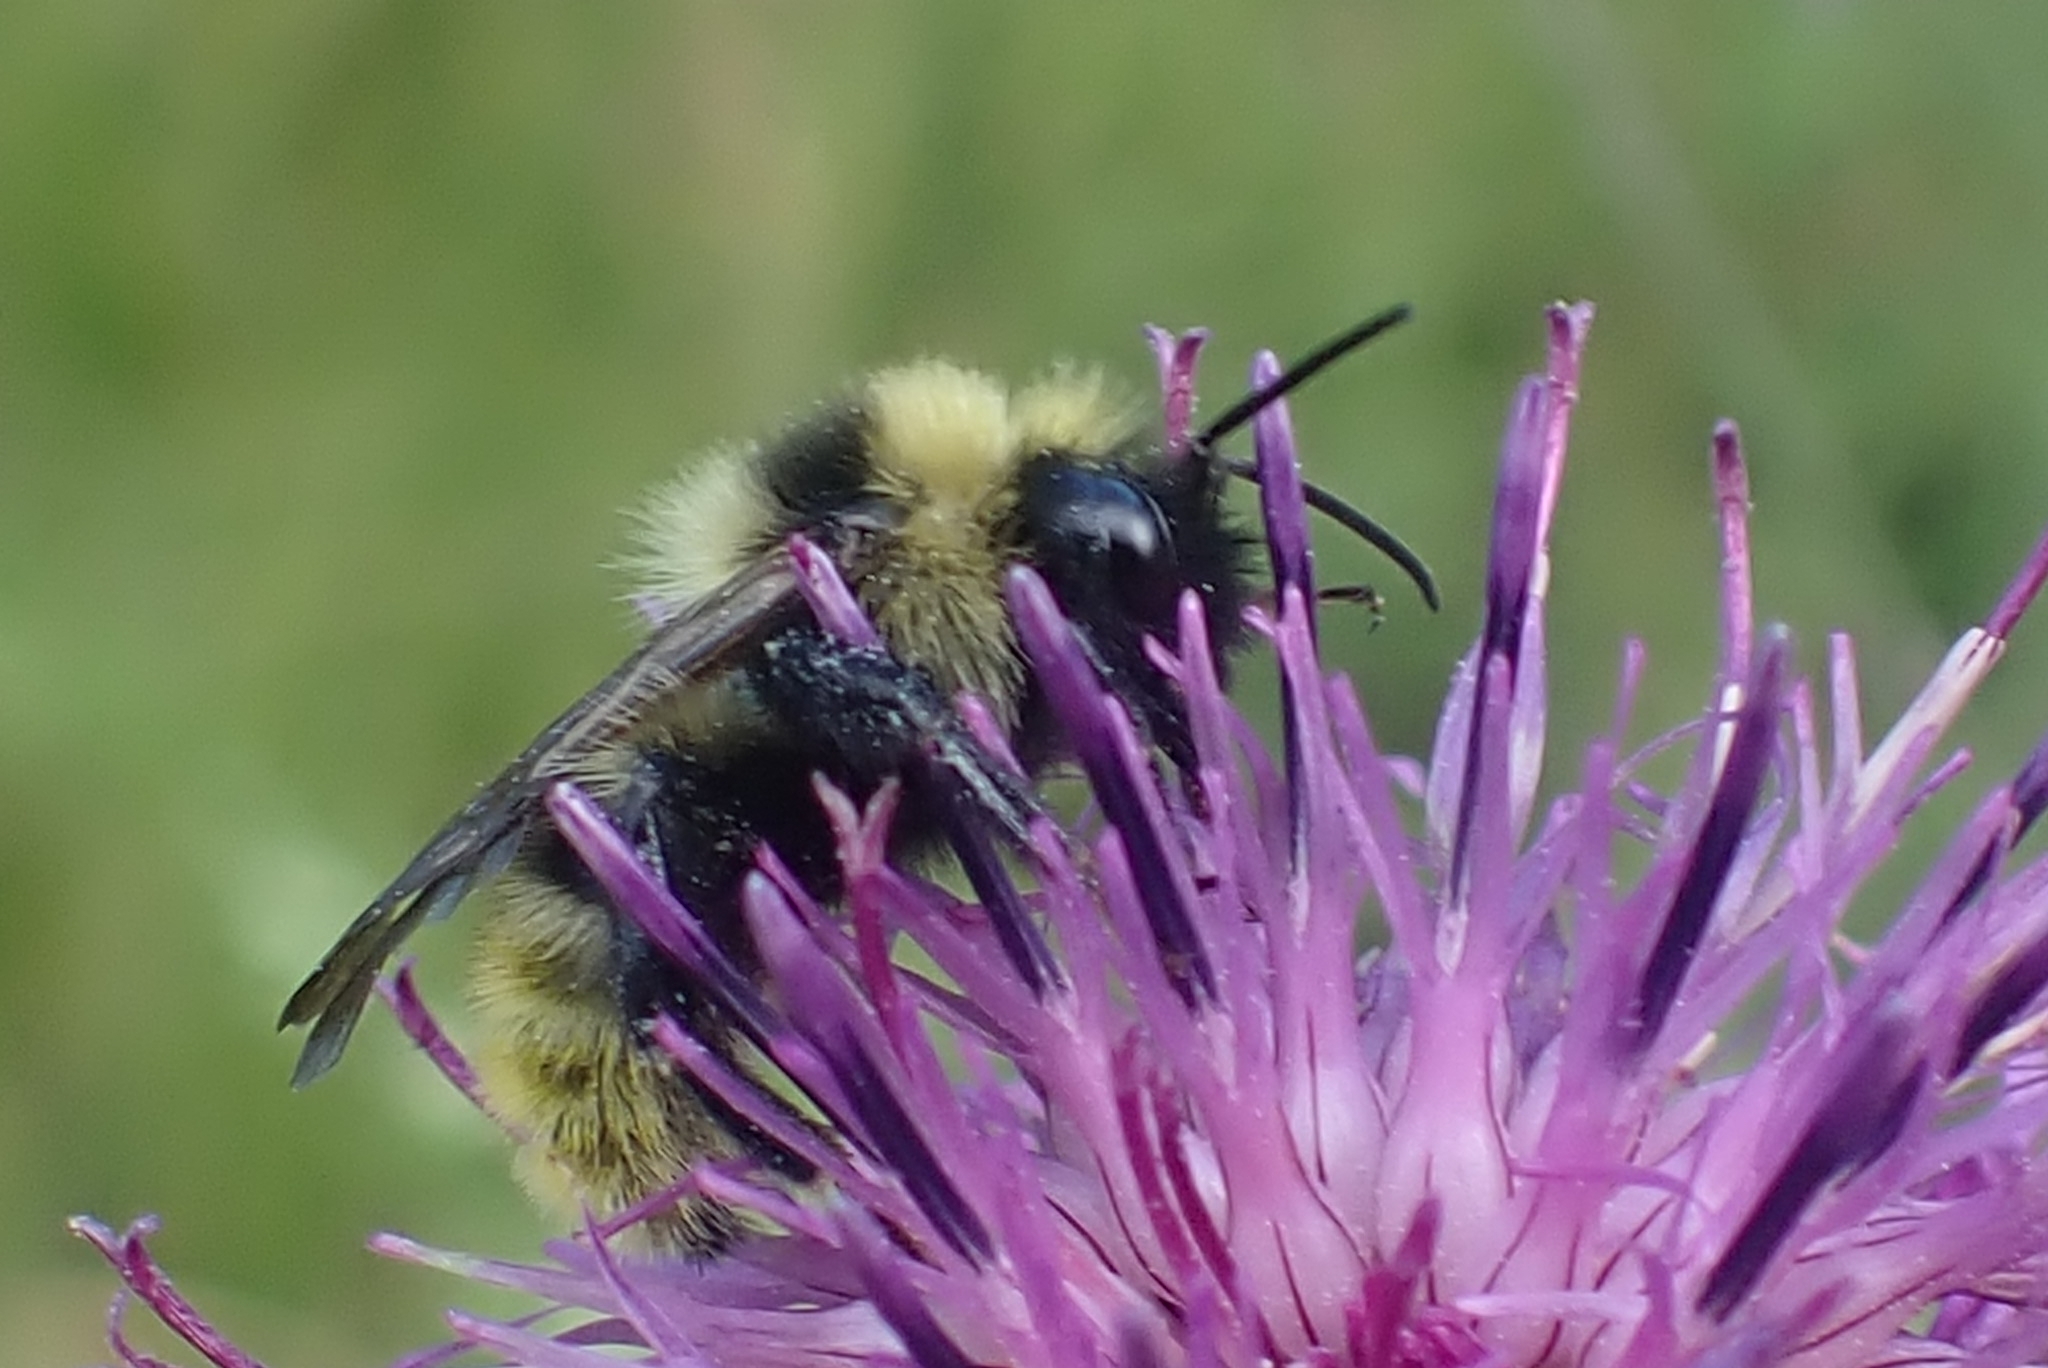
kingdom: Animalia
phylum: Arthropoda
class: Insecta
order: Hymenoptera
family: Apidae
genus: Bombus
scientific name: Bombus campestris
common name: Field cuckoo-bee
